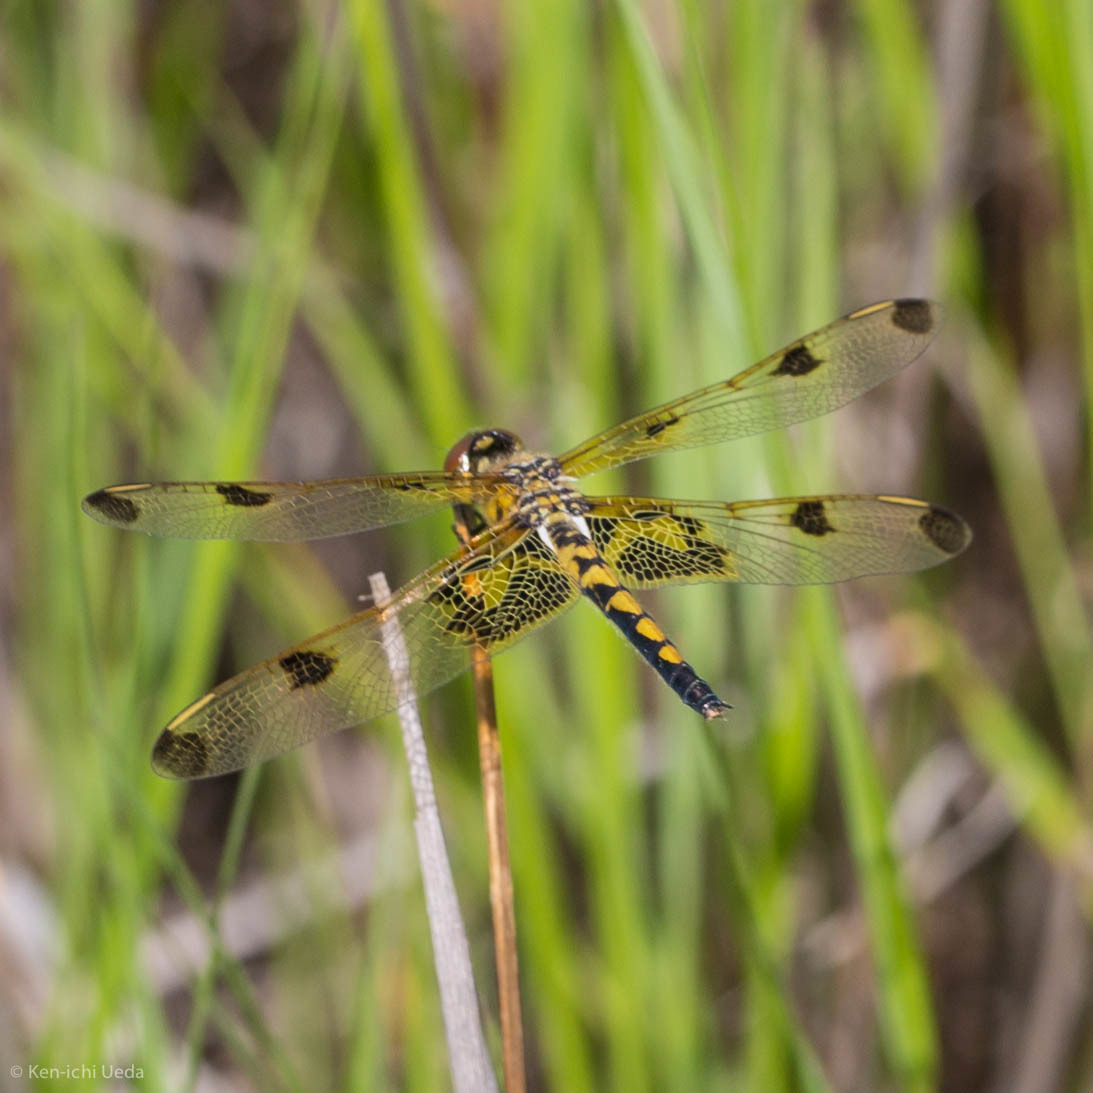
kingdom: Animalia
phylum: Arthropoda
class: Insecta
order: Odonata
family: Libellulidae
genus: Celithemis
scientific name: Celithemis elisa
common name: Calico pennant
